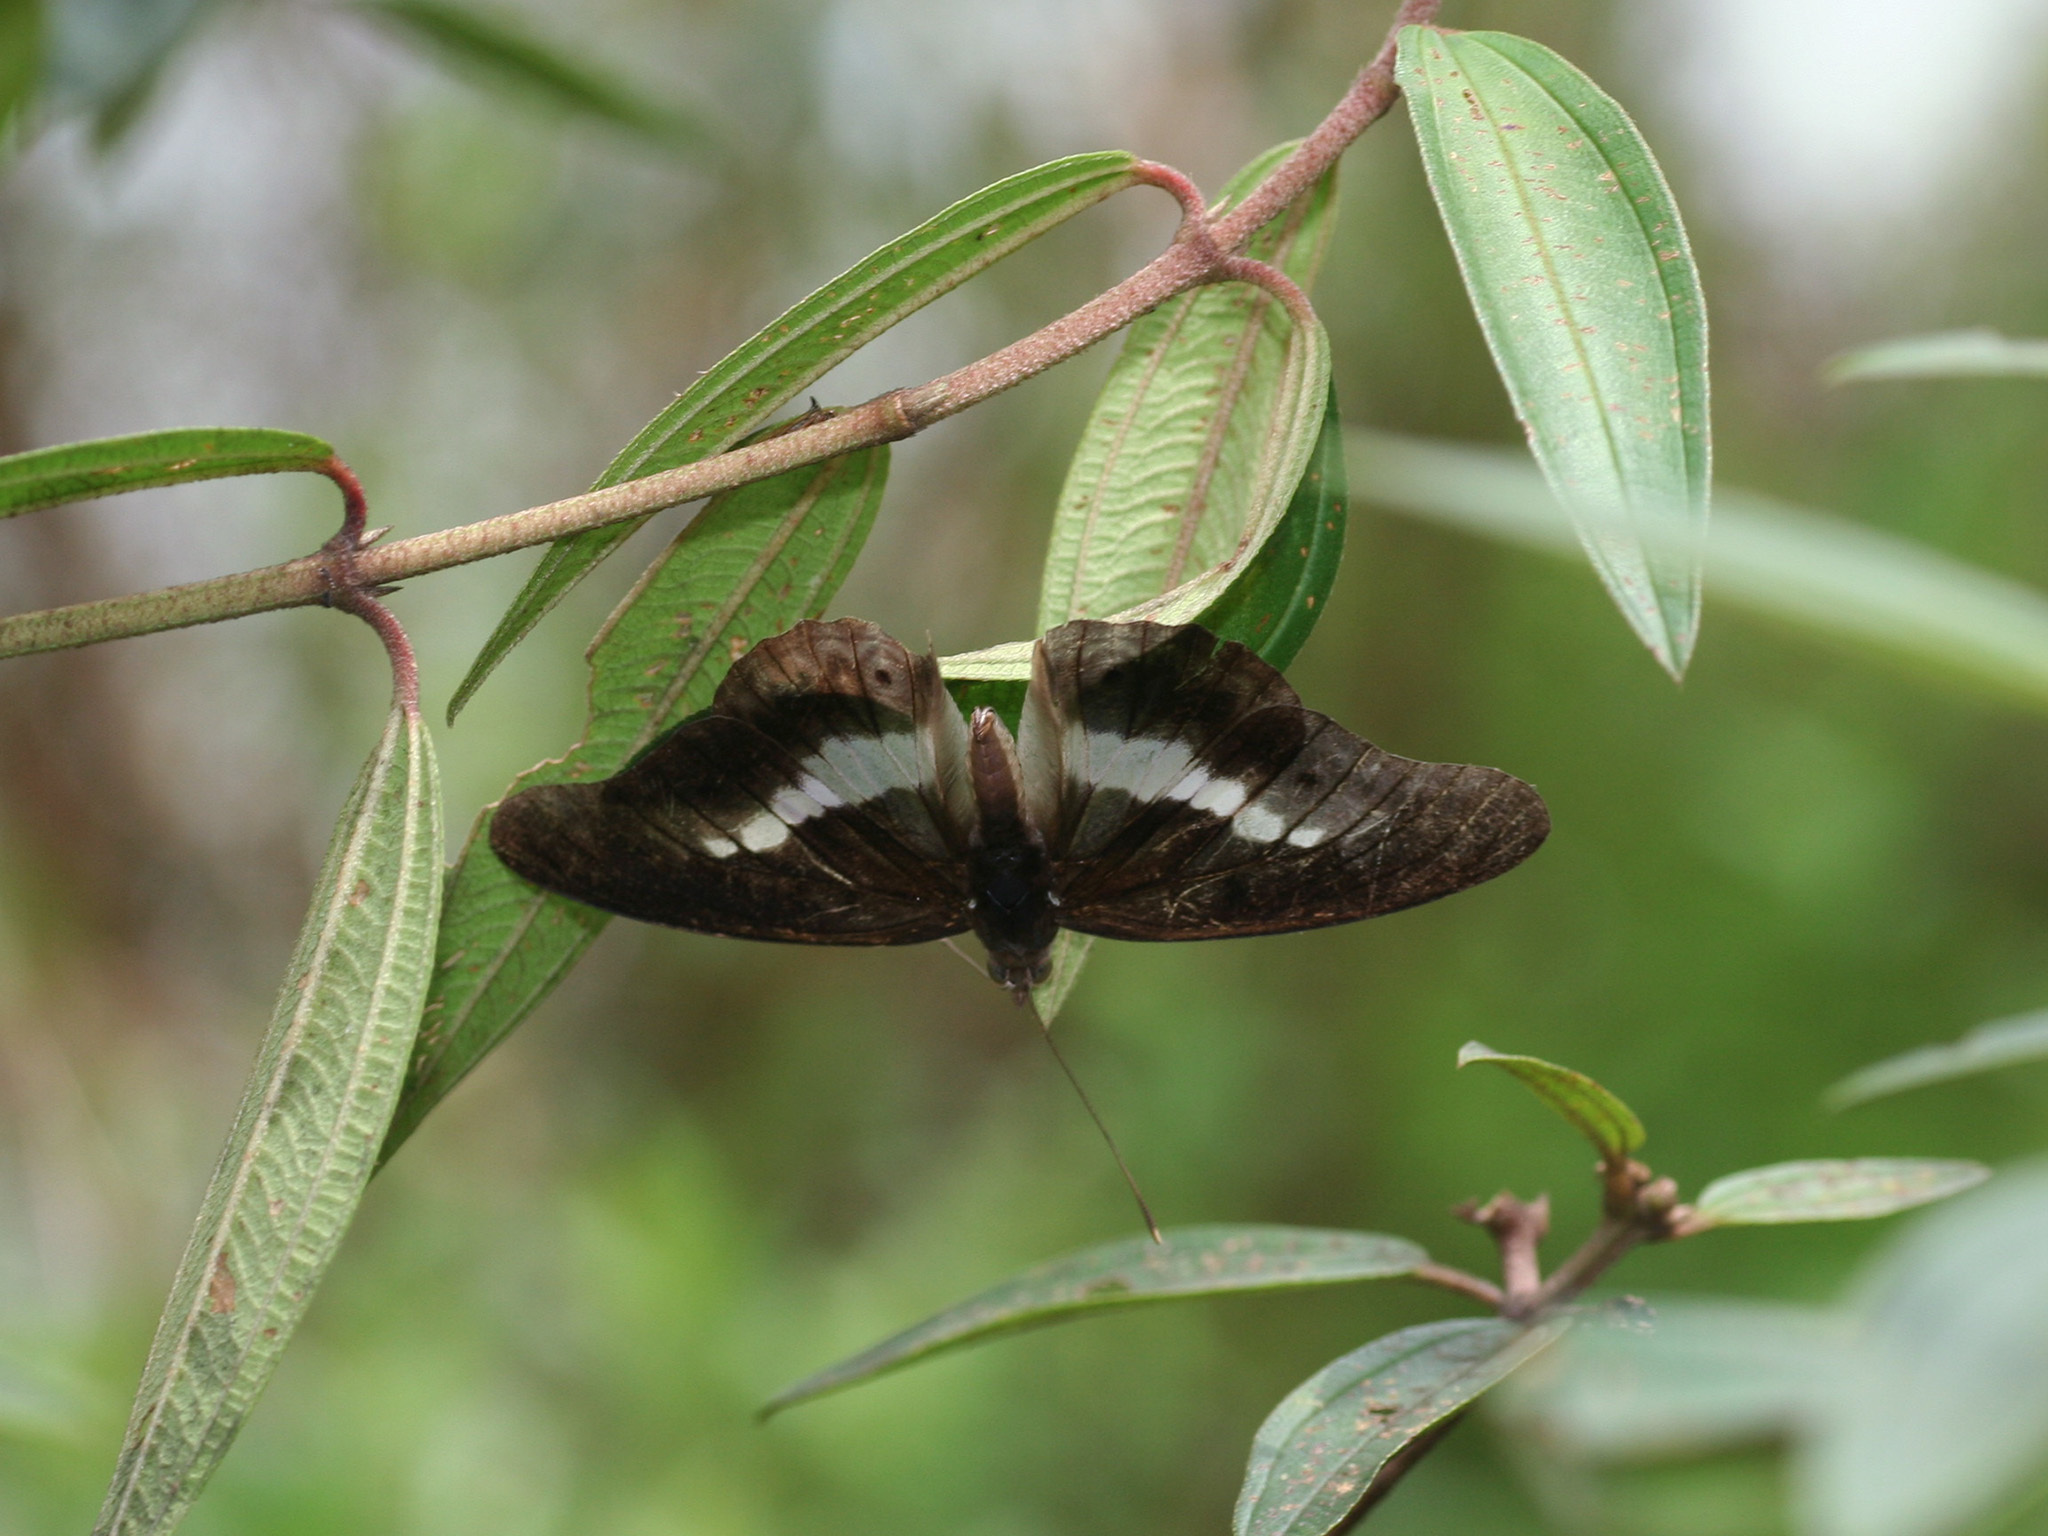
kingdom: Animalia
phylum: Arthropoda
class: Insecta
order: Lepidoptera
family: Nymphalidae
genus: Eulaceura
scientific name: Eulaceura osteria
